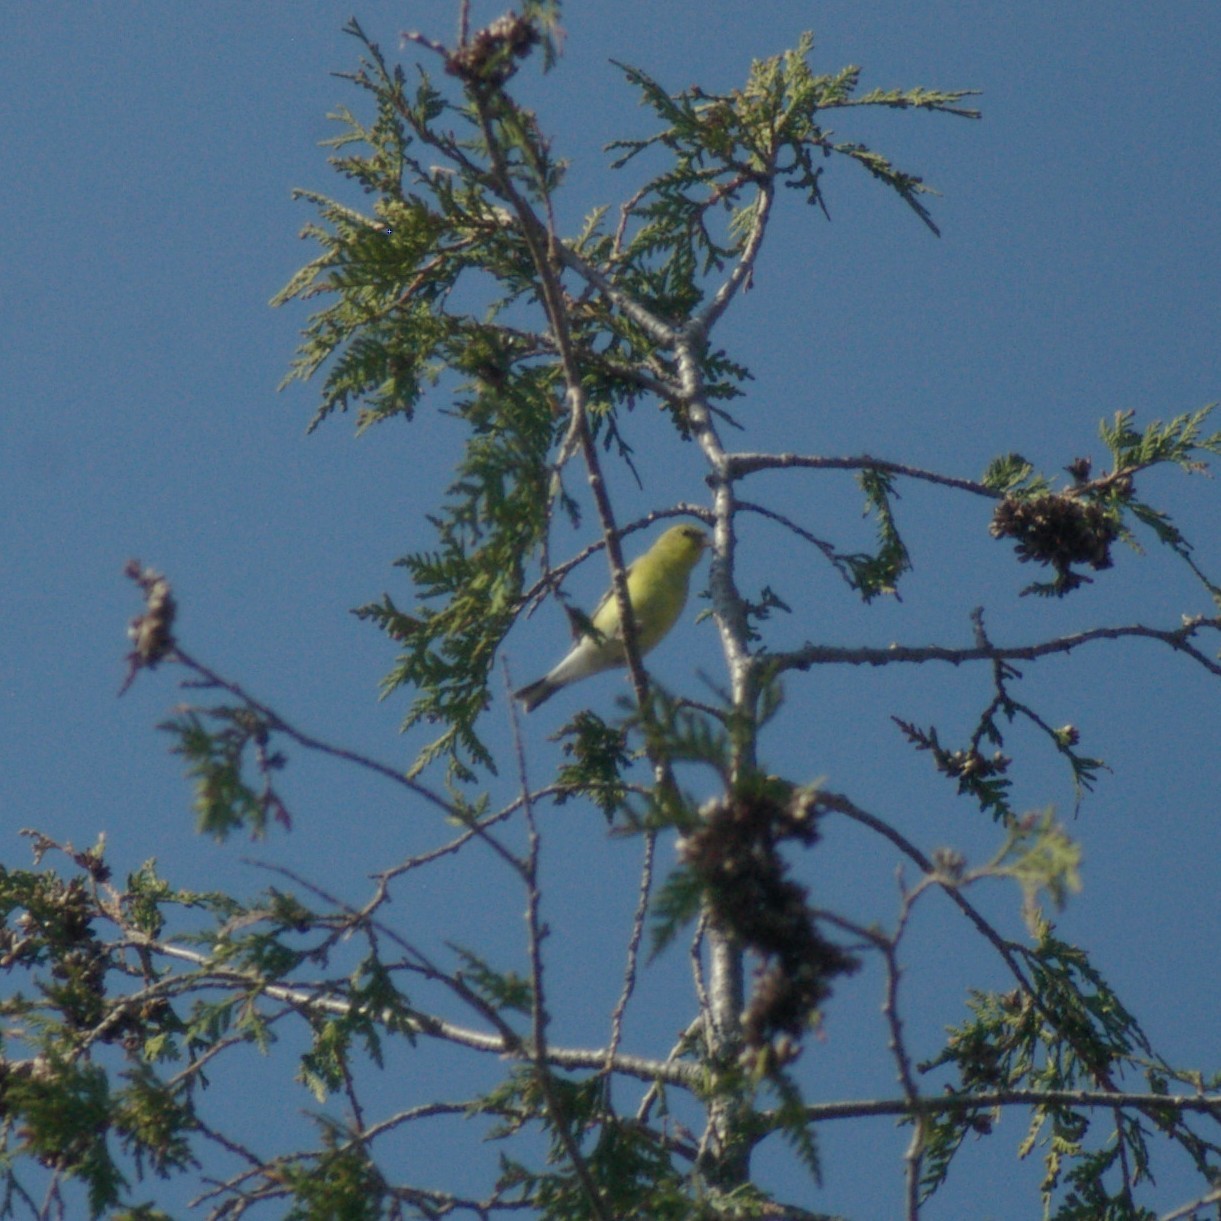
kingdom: Animalia
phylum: Chordata
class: Aves
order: Passeriformes
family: Fringillidae
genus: Spinus
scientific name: Spinus tristis
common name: American goldfinch
